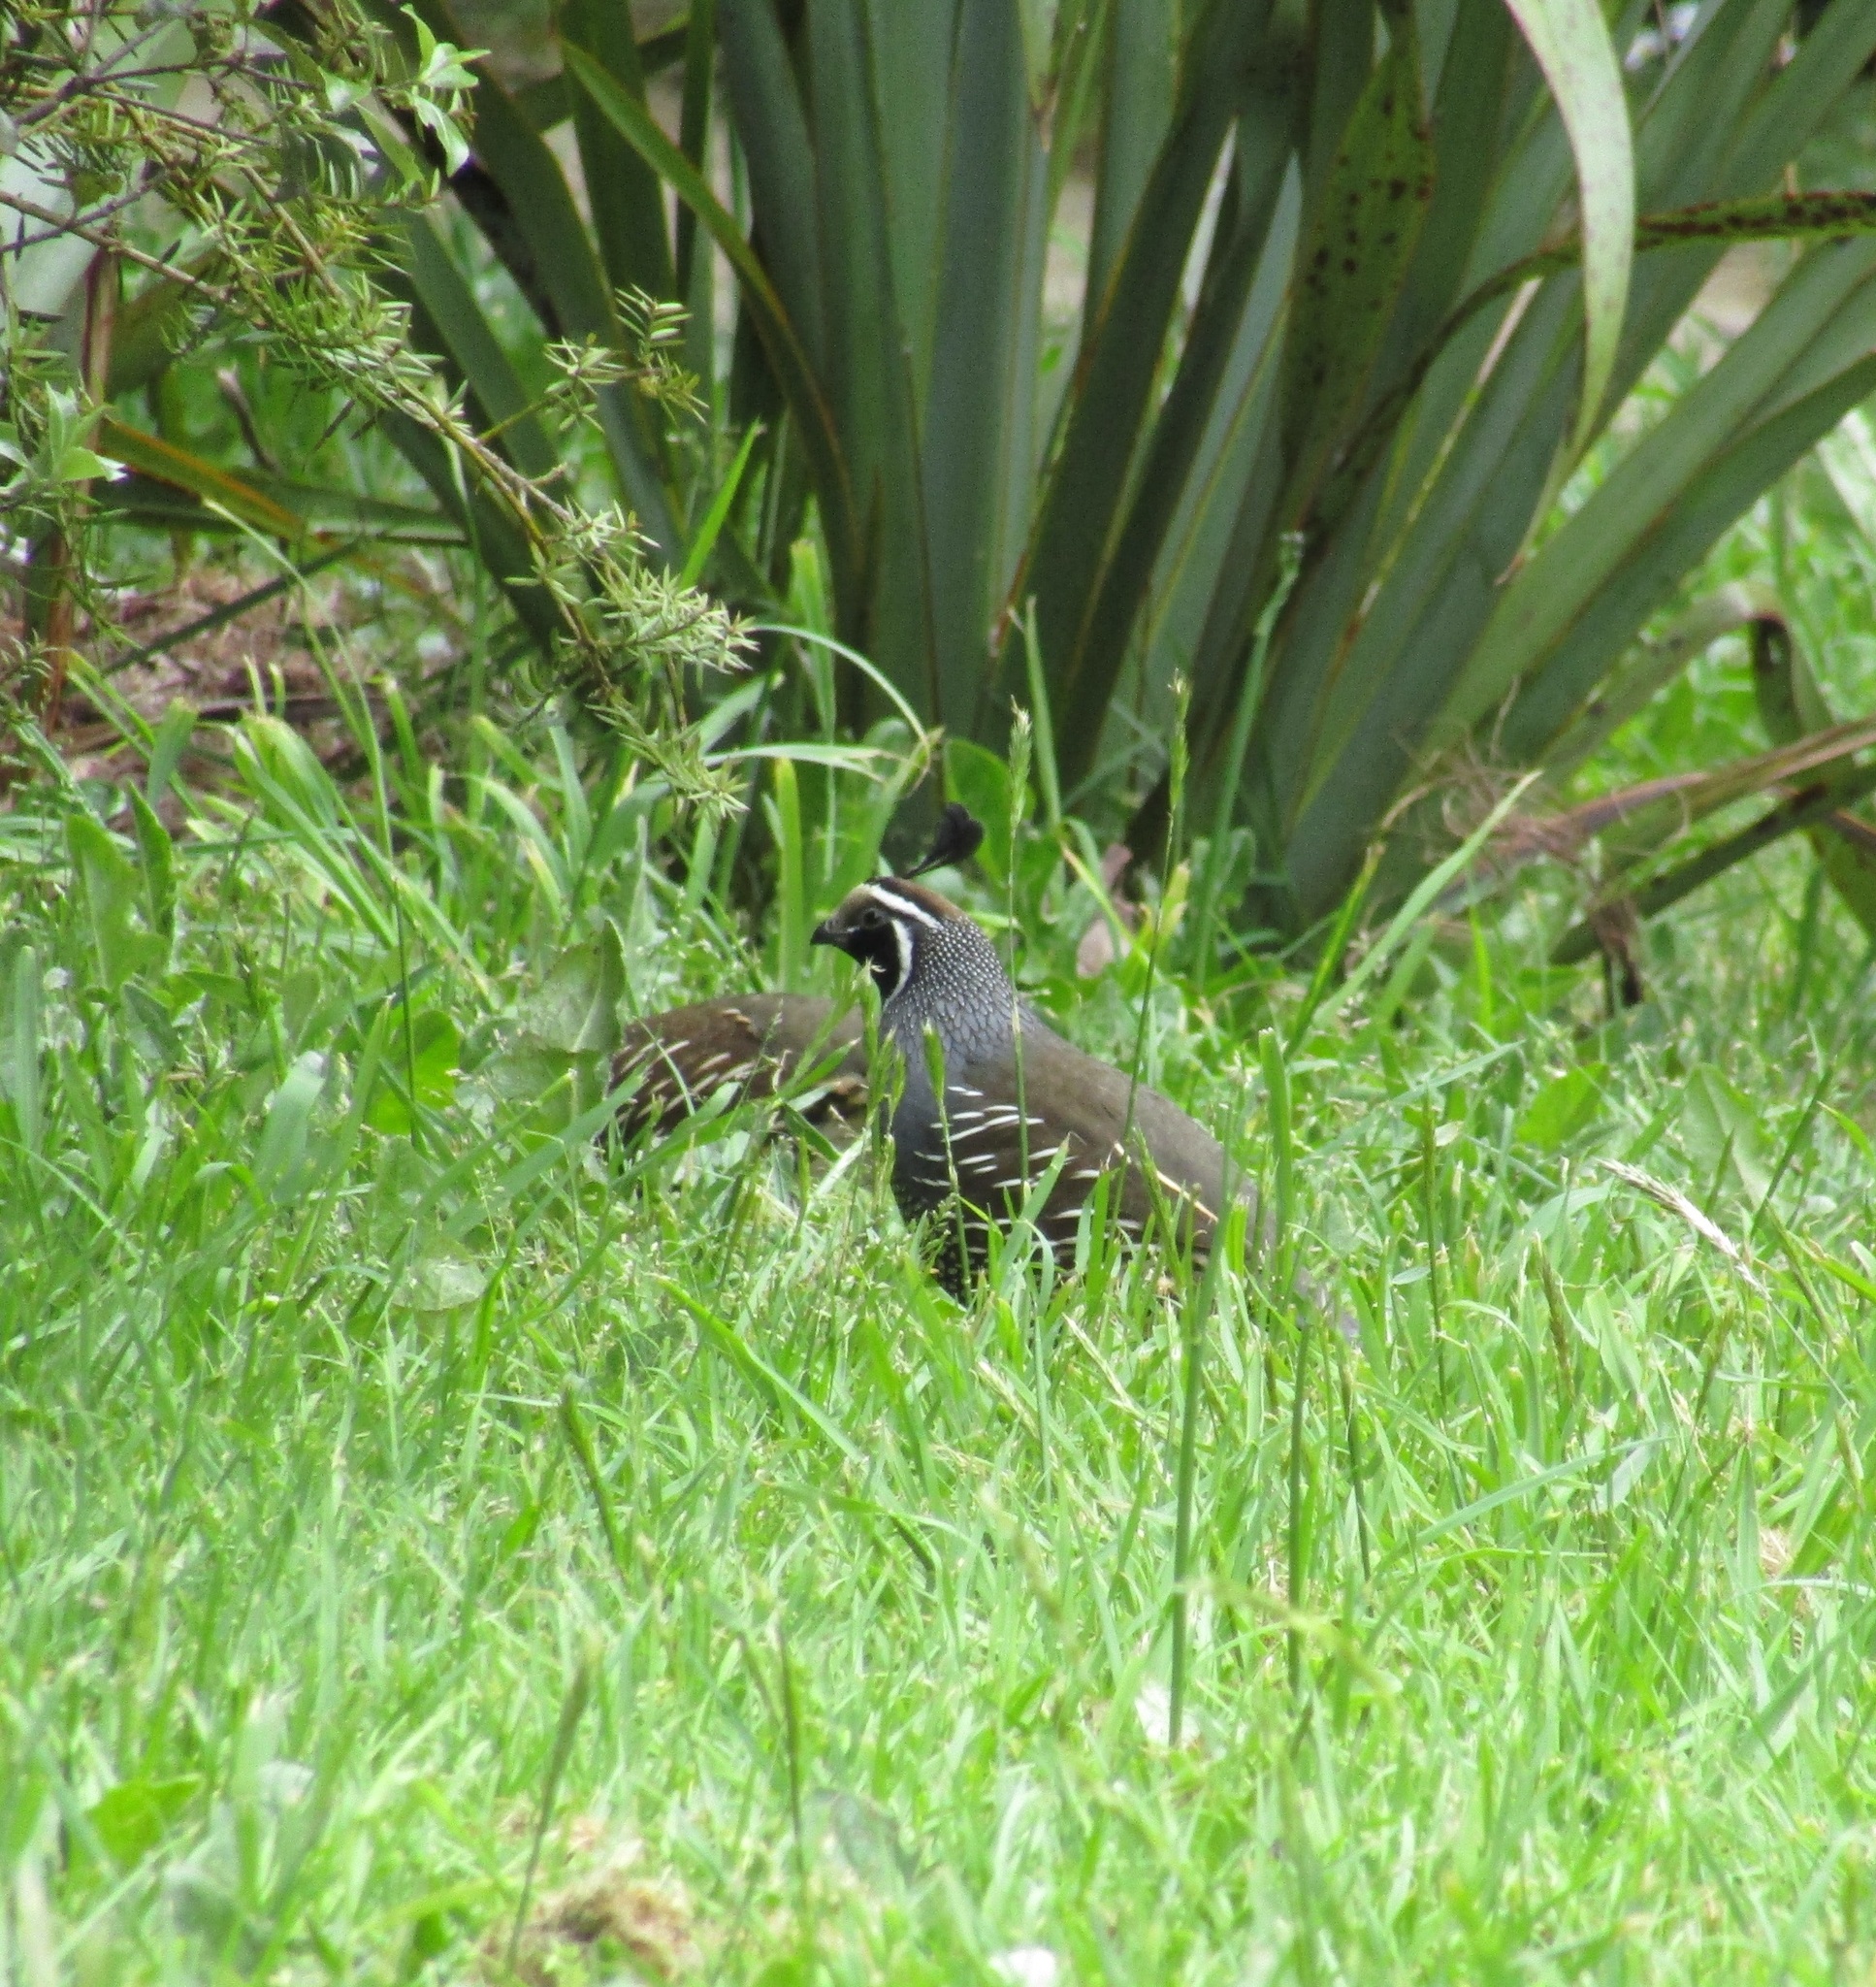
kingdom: Animalia
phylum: Chordata
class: Aves
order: Galliformes
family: Odontophoridae
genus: Callipepla
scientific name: Callipepla californica
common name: California quail
